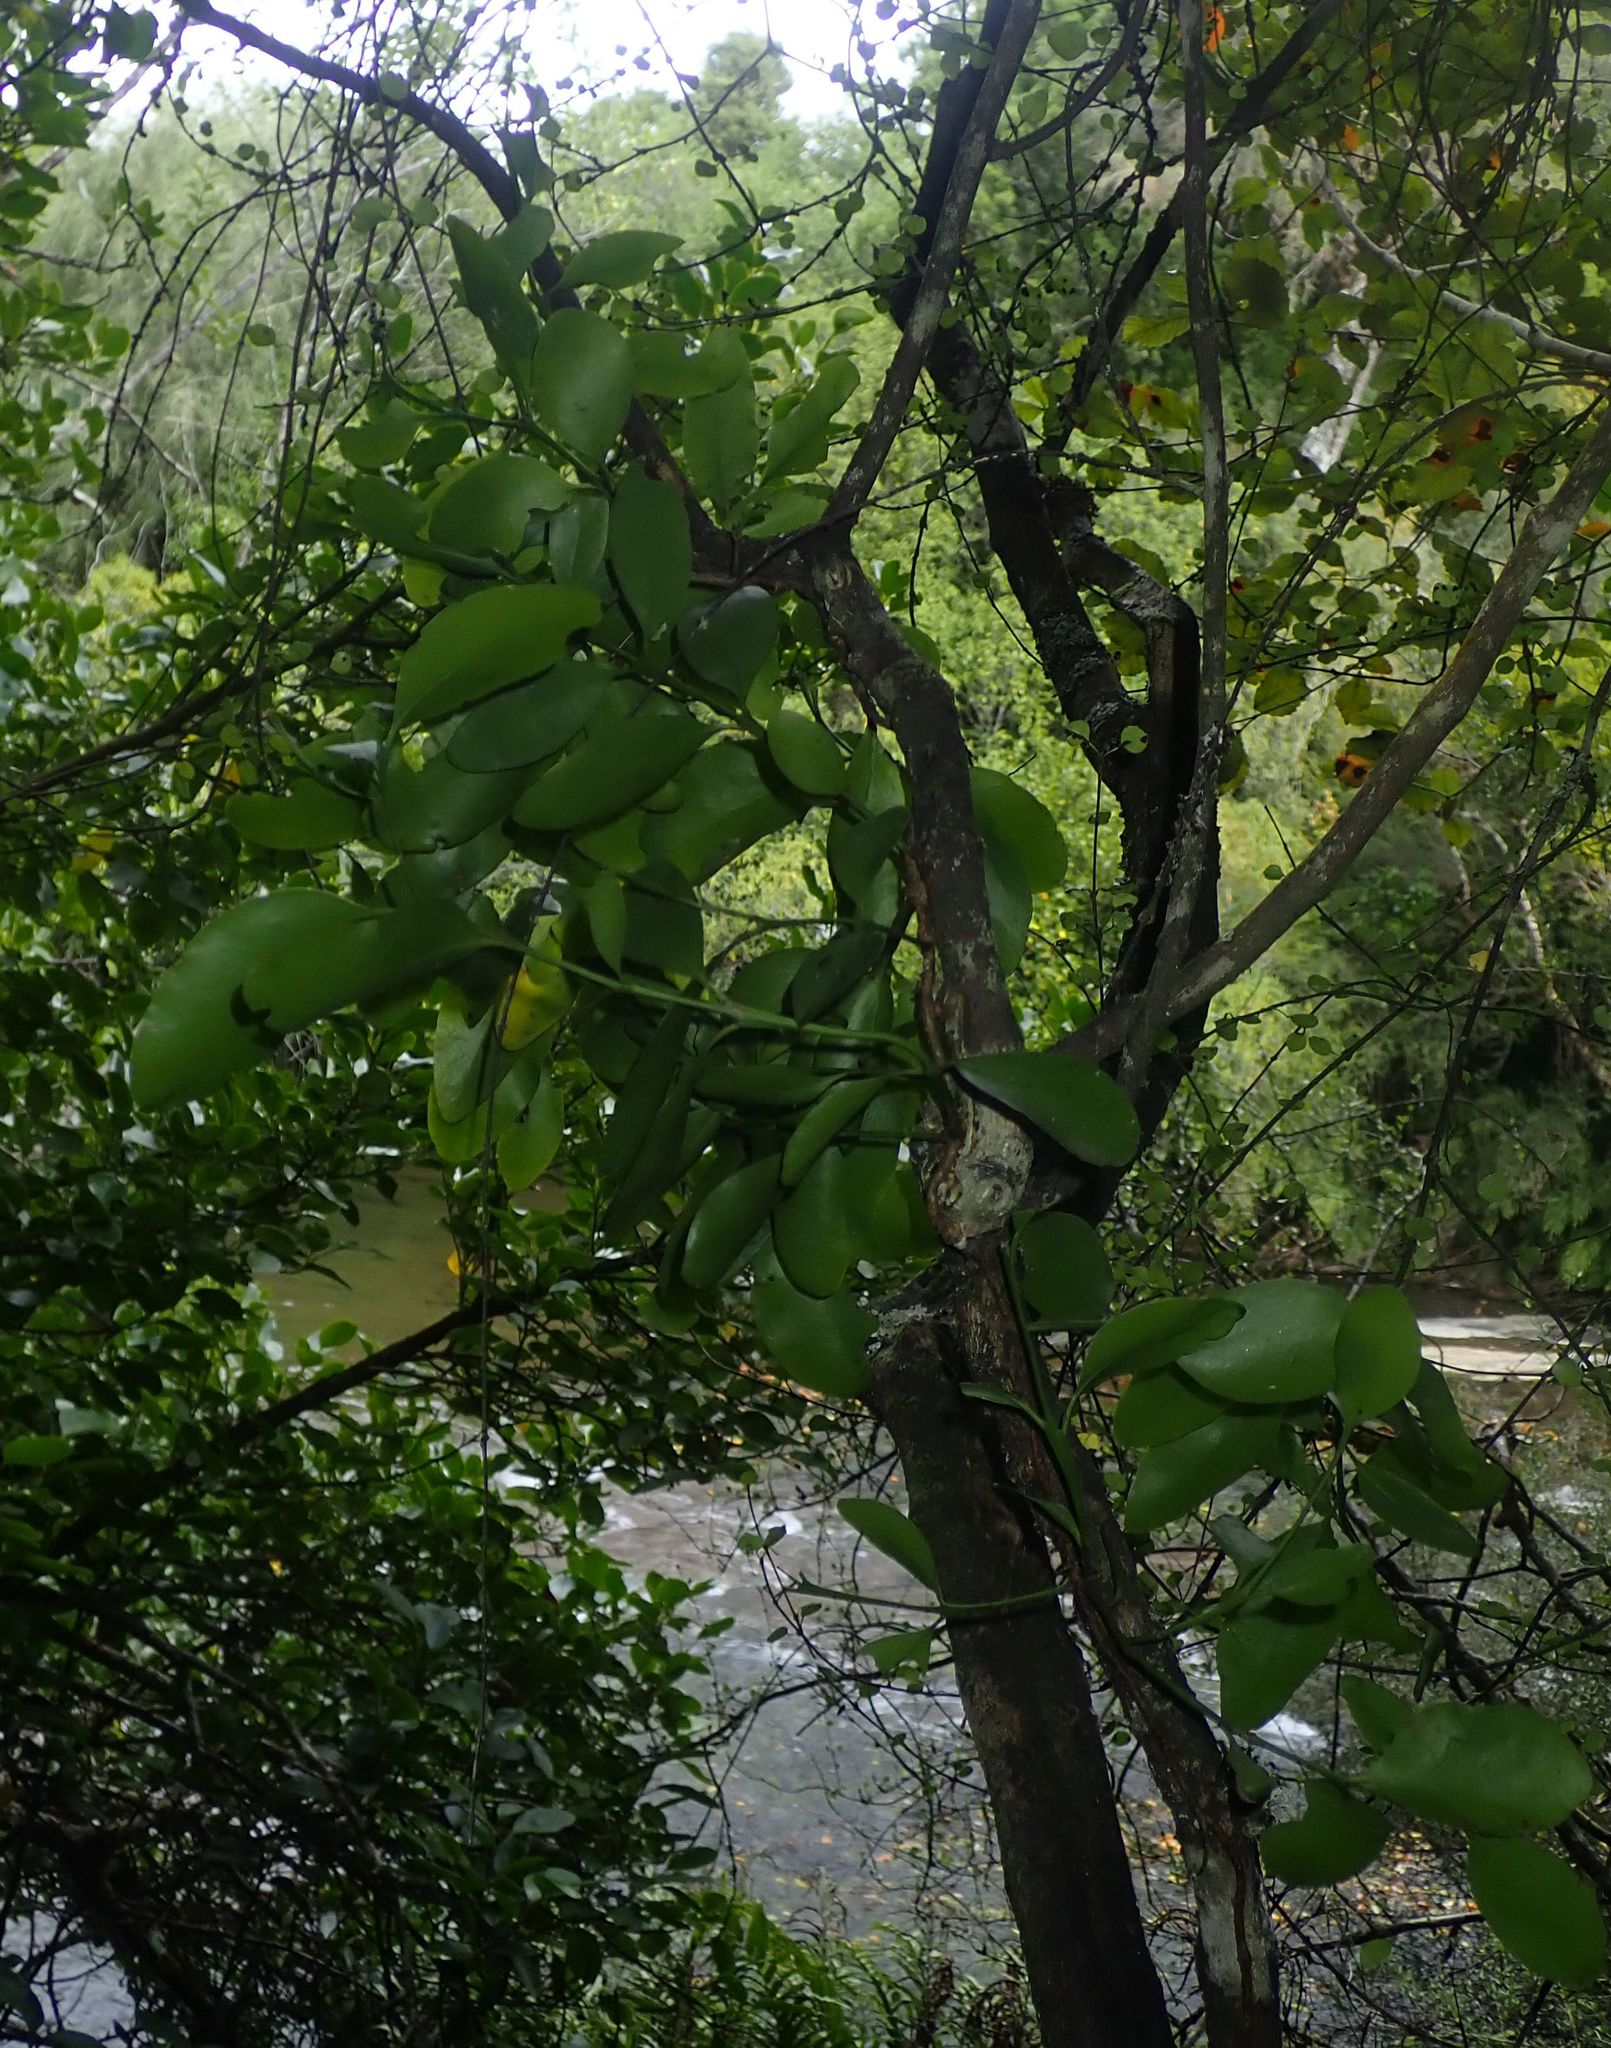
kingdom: Plantae
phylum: Tracheophyta
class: Magnoliopsida
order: Santalales
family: Loranthaceae
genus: Ileostylus
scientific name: Ileostylus micranthus
